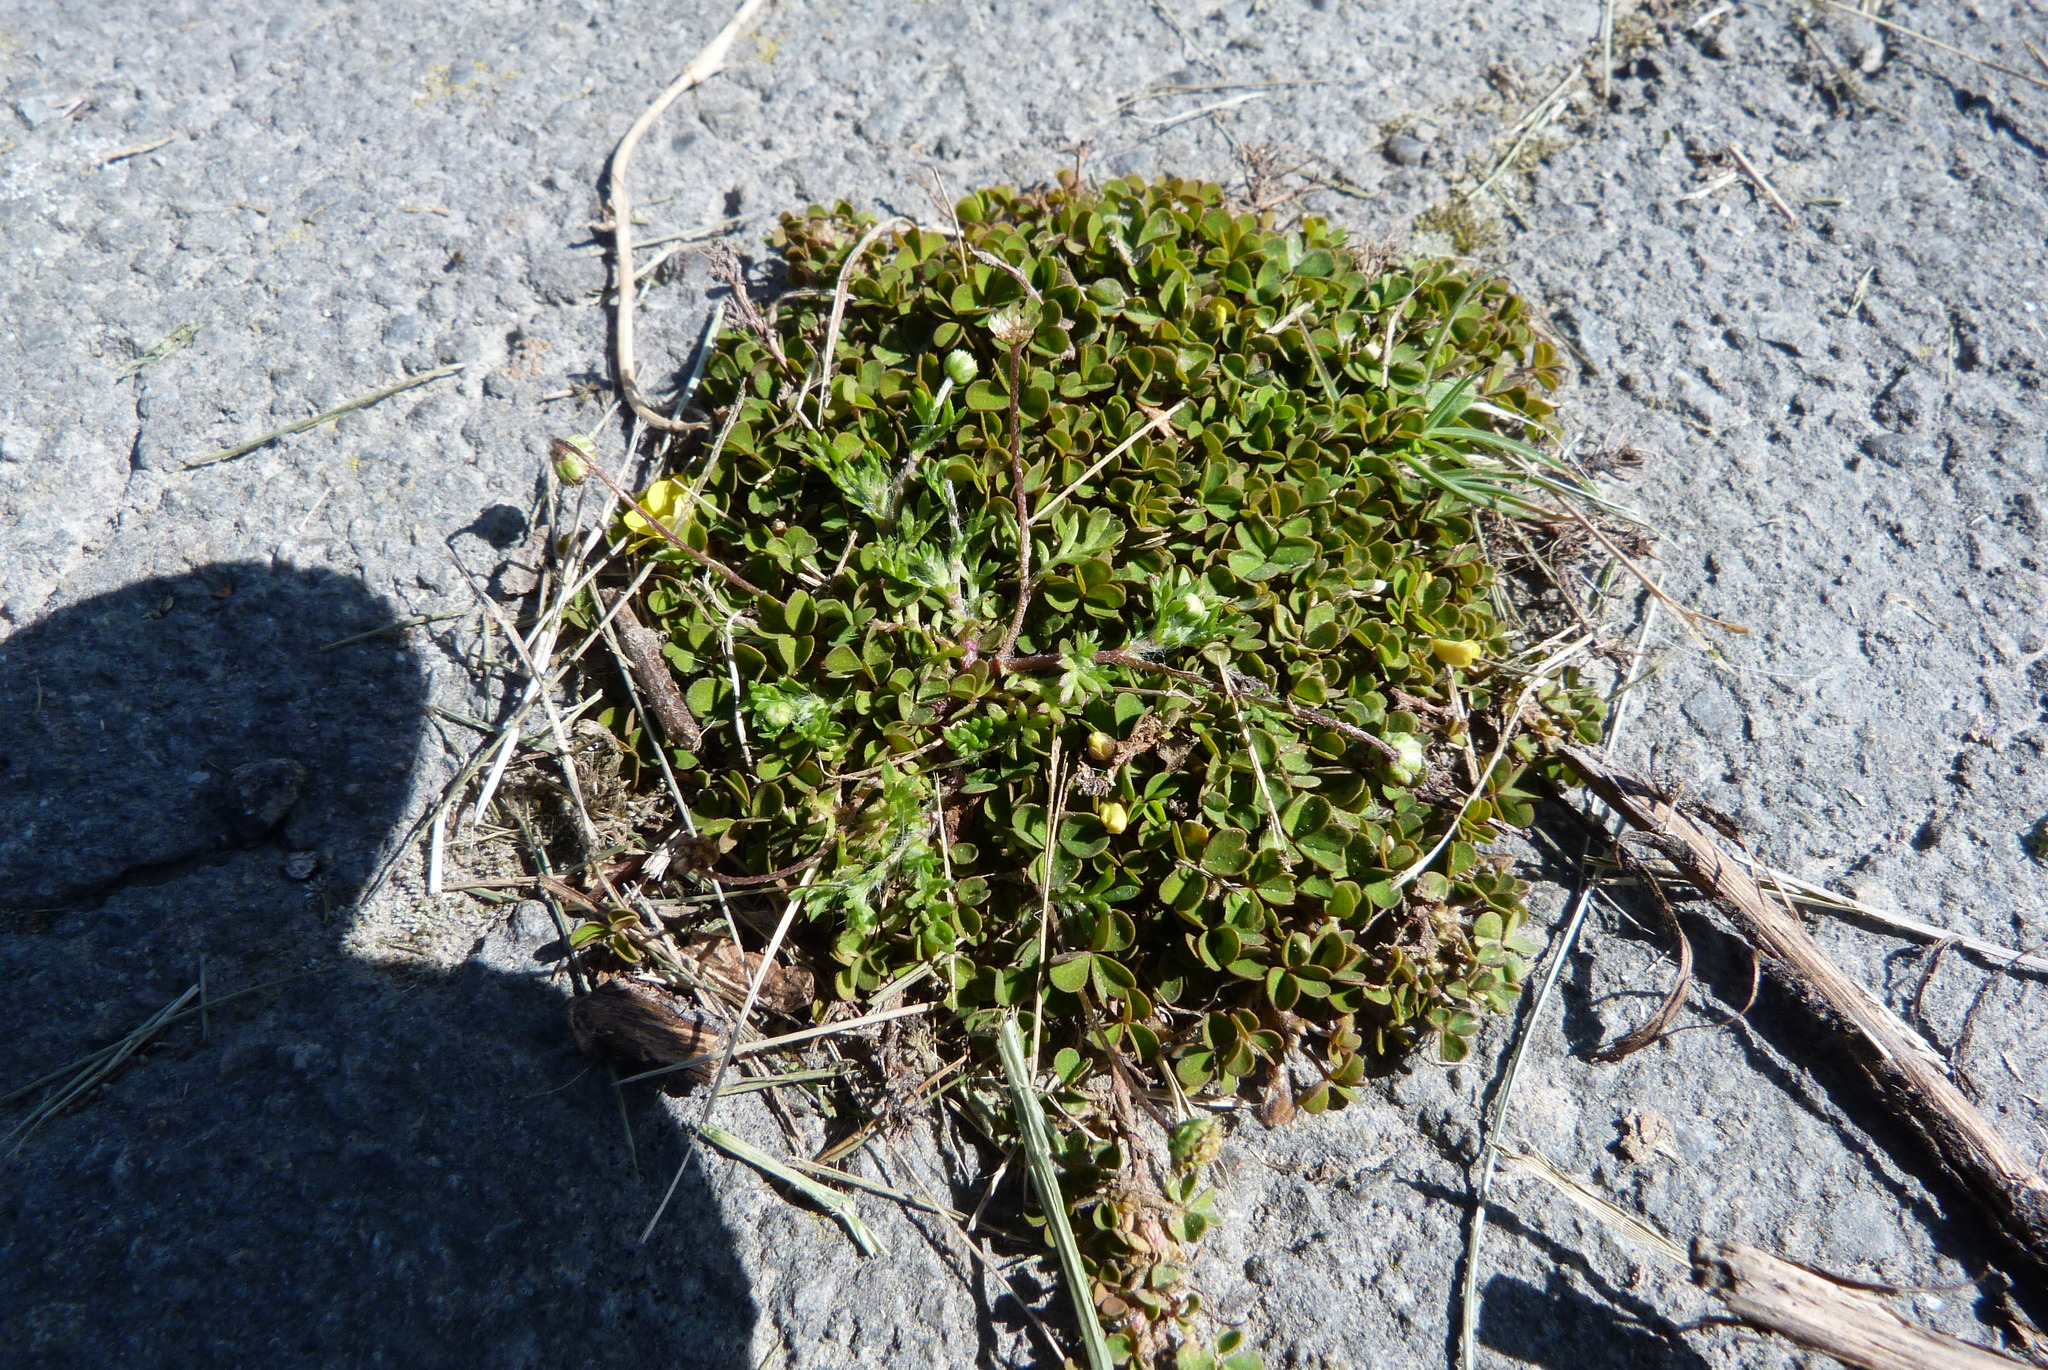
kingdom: Plantae
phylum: Tracheophyta
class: Magnoliopsida
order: Oxalidales
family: Oxalidaceae
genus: Oxalis
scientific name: Oxalis exilis
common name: Least yellow-sorrel
